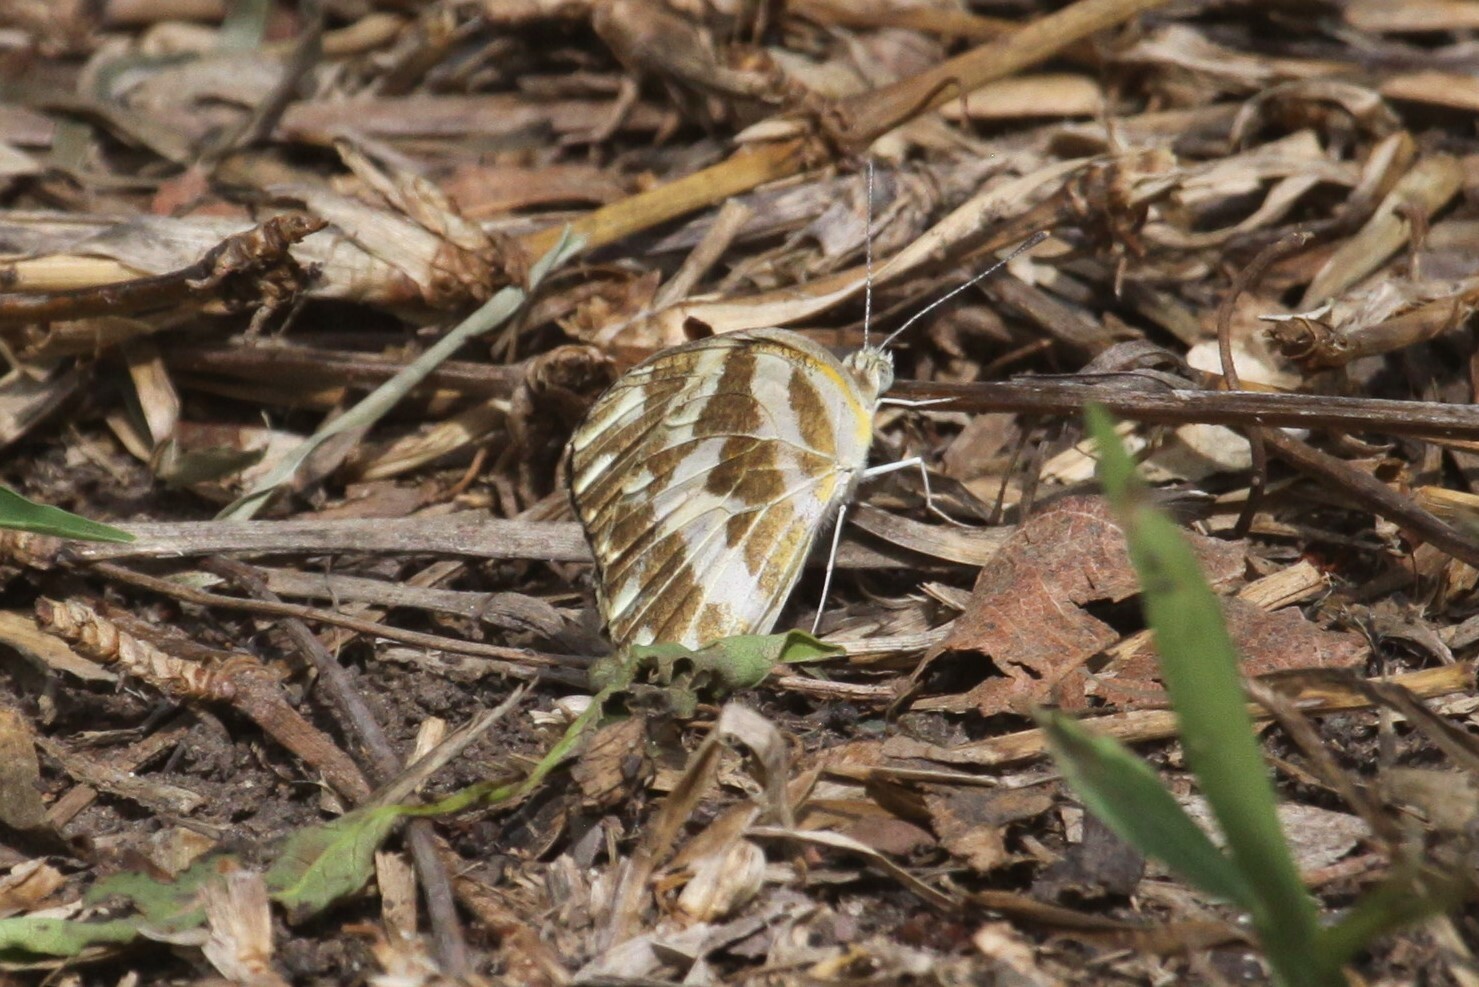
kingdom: Animalia
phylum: Arthropoda
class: Insecta
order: Lepidoptera
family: Pieridae
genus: Pinacopteryx
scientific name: Pinacopteryx eriphia
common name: Zebra white
